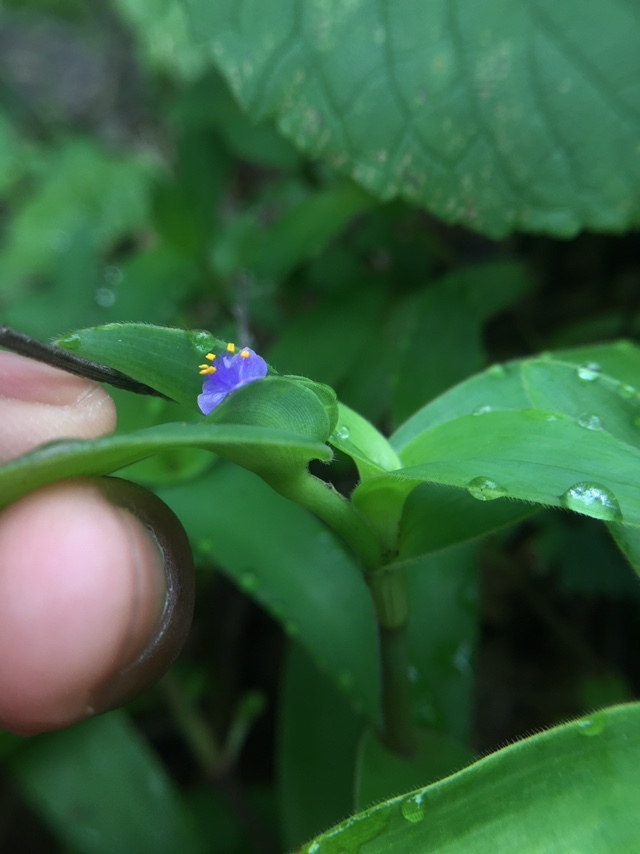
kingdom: Plantae
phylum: Tracheophyta
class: Liliopsida
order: Commelinales
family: Commelinaceae
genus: Cyanotis
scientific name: Cyanotis cristata
